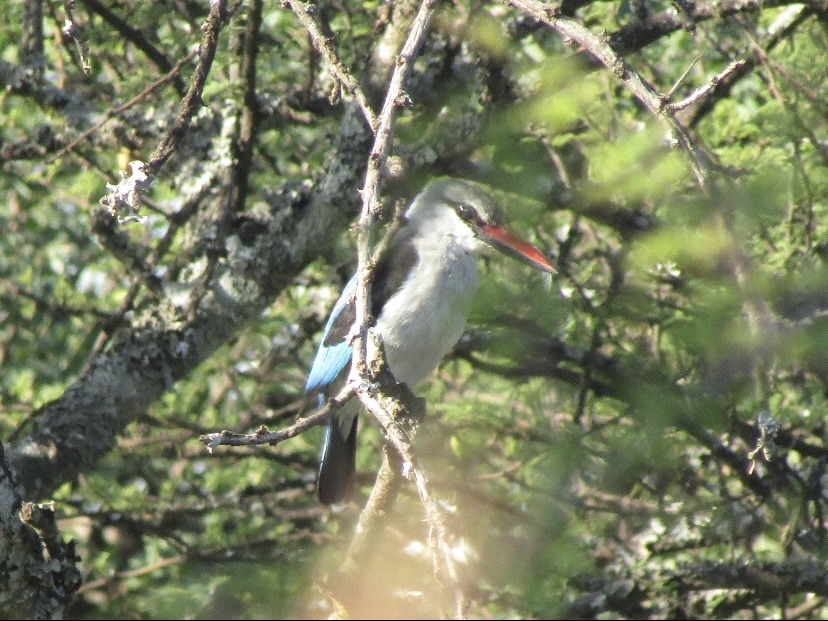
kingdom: Animalia
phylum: Chordata
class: Aves
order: Coraciiformes
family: Alcedinidae
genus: Halcyon
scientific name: Halcyon senegalensis
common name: Woodland kingfisher
